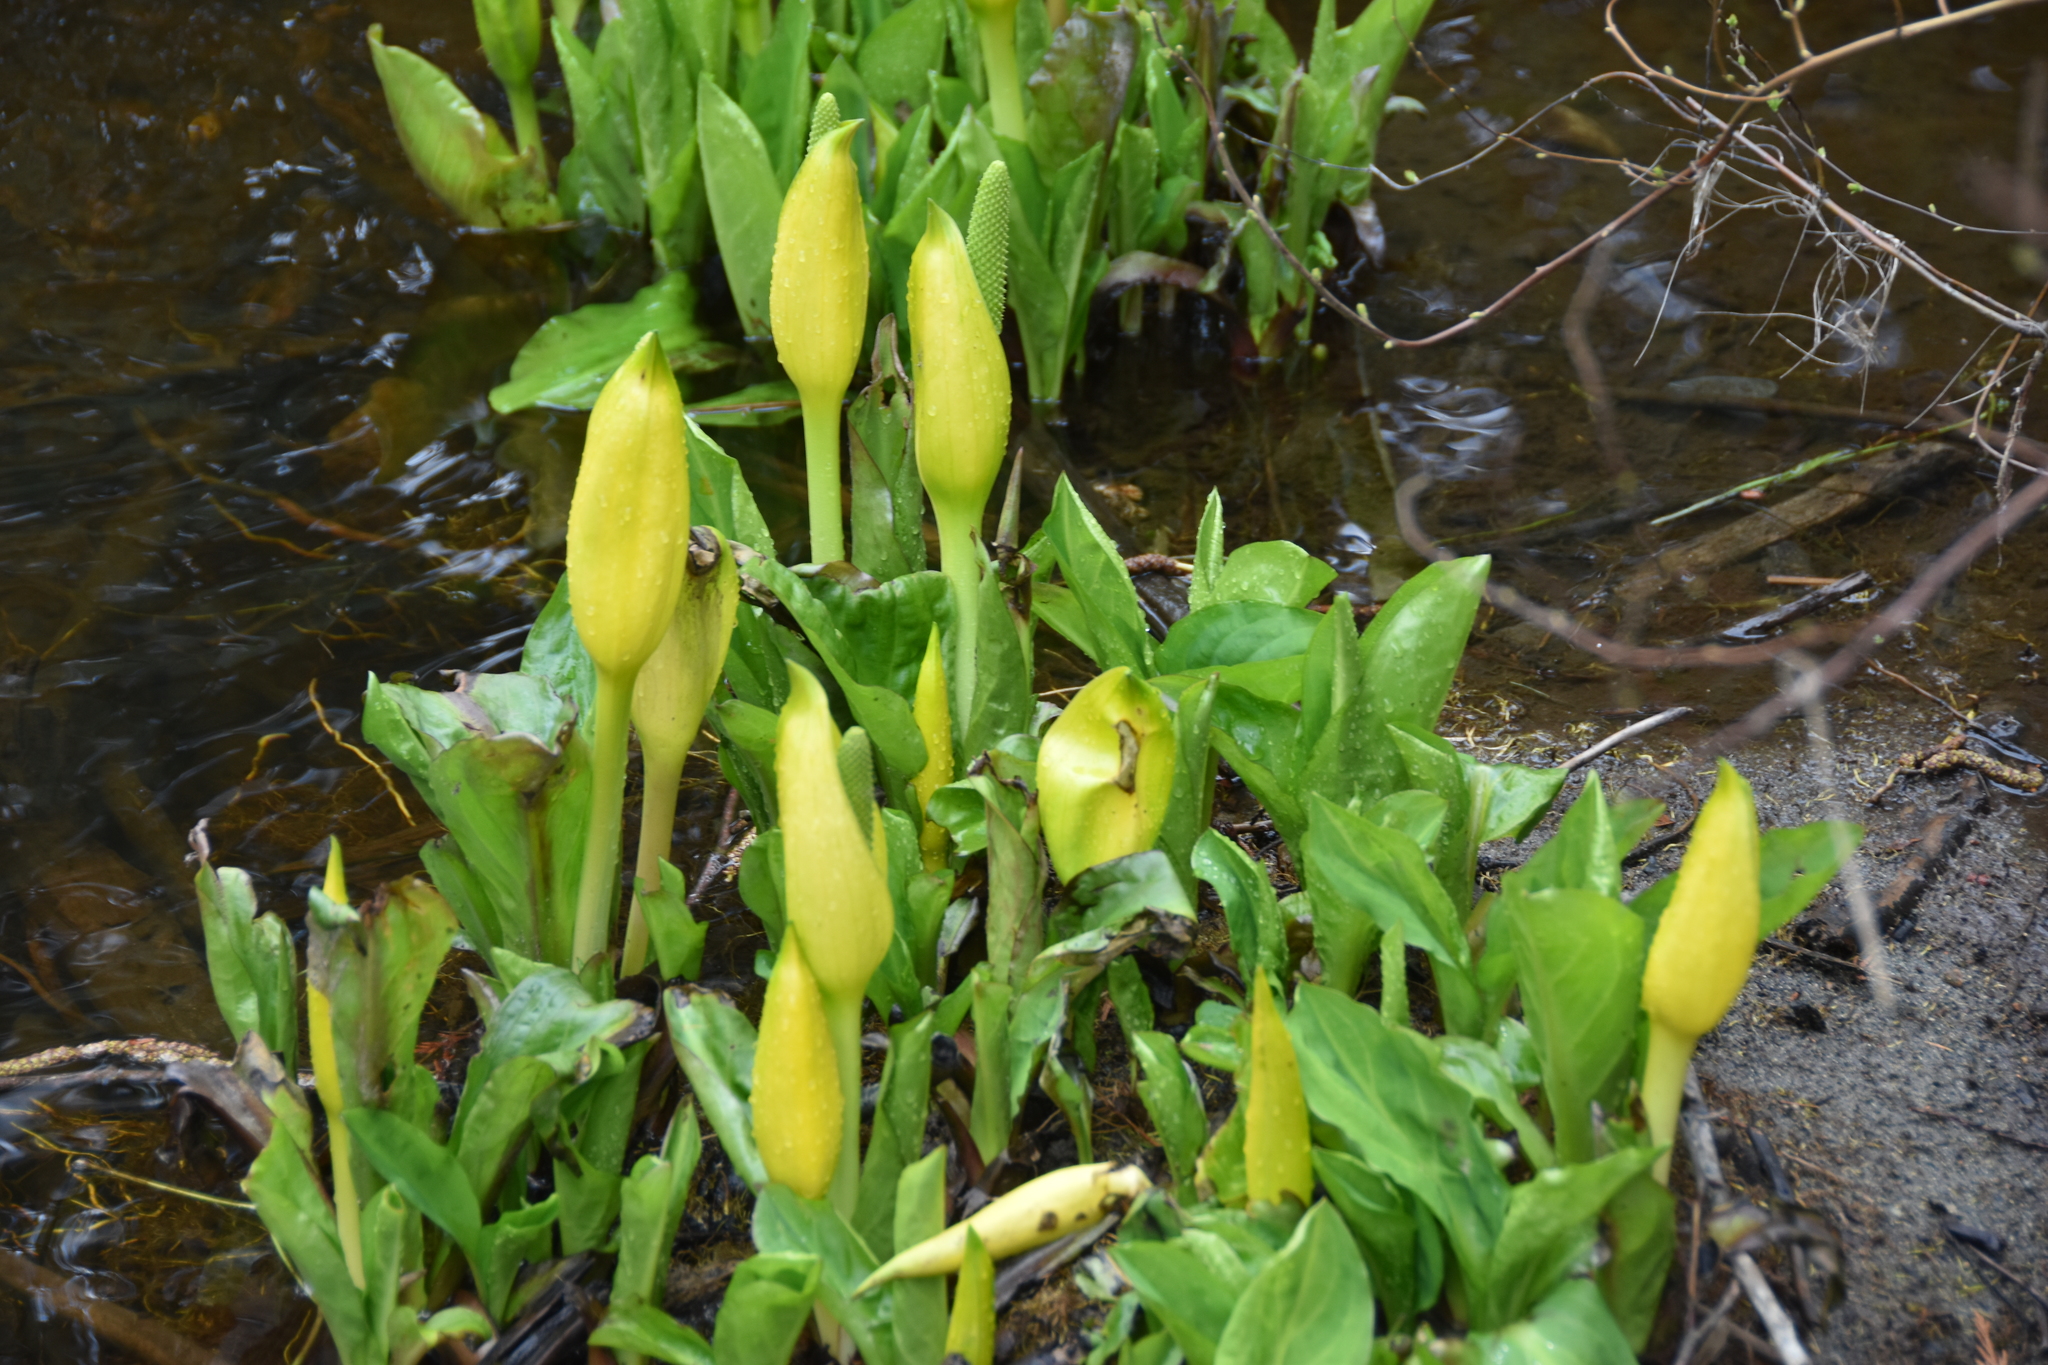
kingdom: Plantae
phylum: Tracheophyta
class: Liliopsida
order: Alismatales
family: Araceae
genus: Lysichiton
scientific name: Lysichiton americanus
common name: American skunk cabbage
